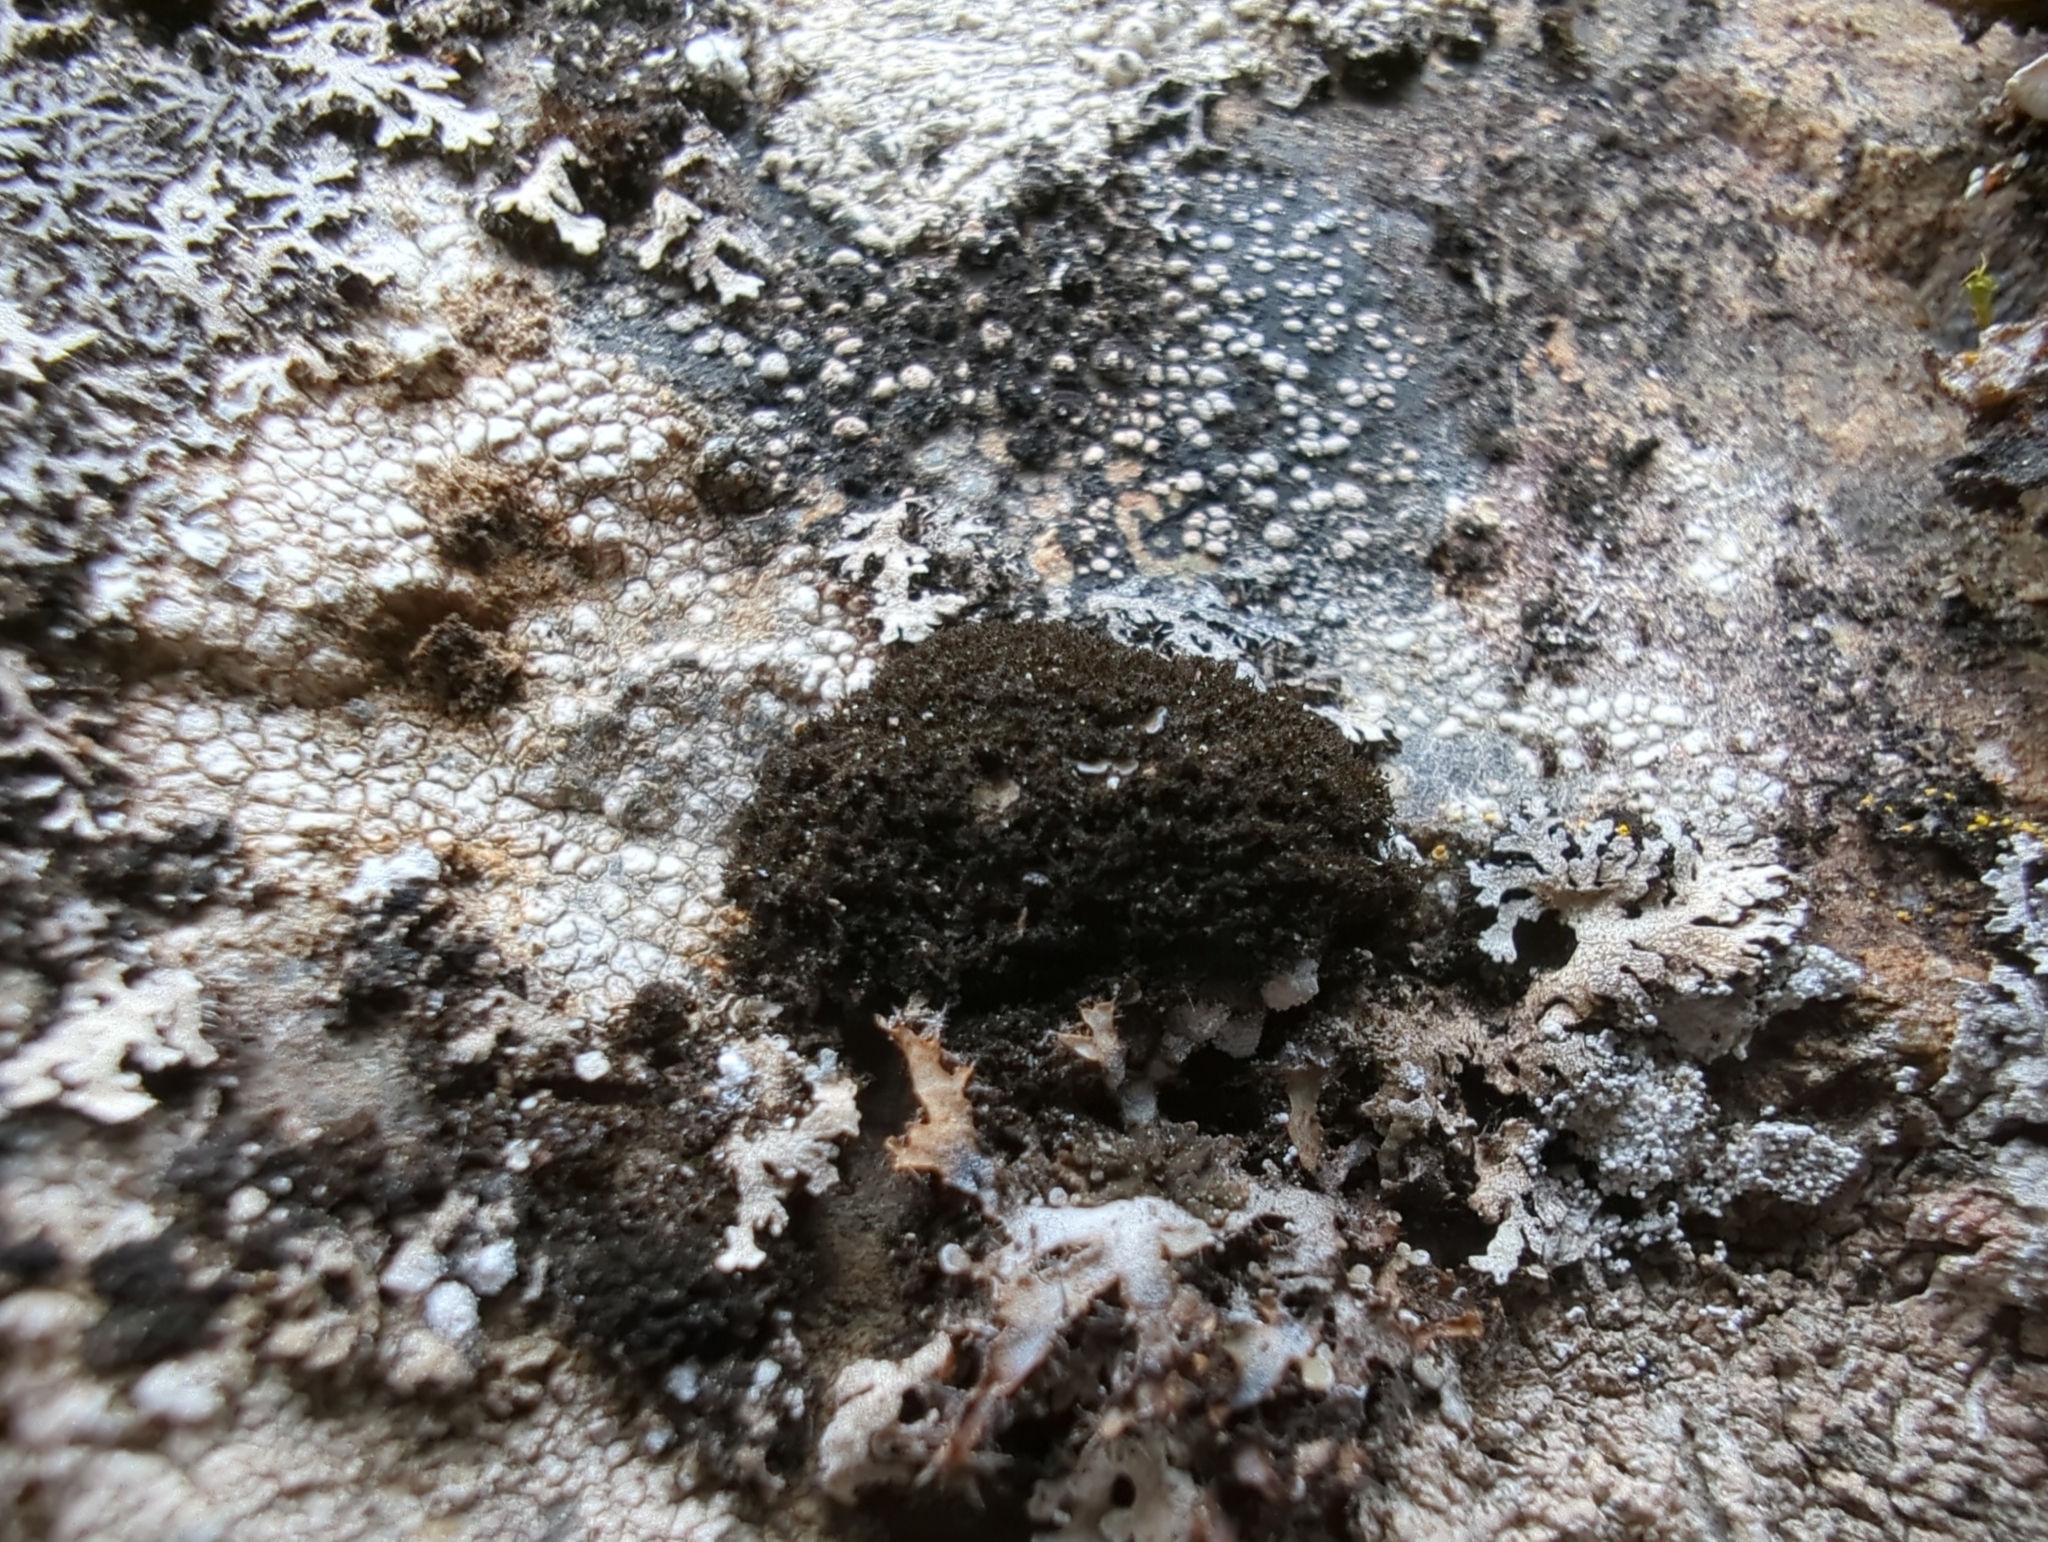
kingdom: Fungi
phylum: Ascomycota
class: Lecanoromycetes
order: Peltigerales
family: Coccocarpiaceae
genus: Spilonema
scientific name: Spilonema revertens
